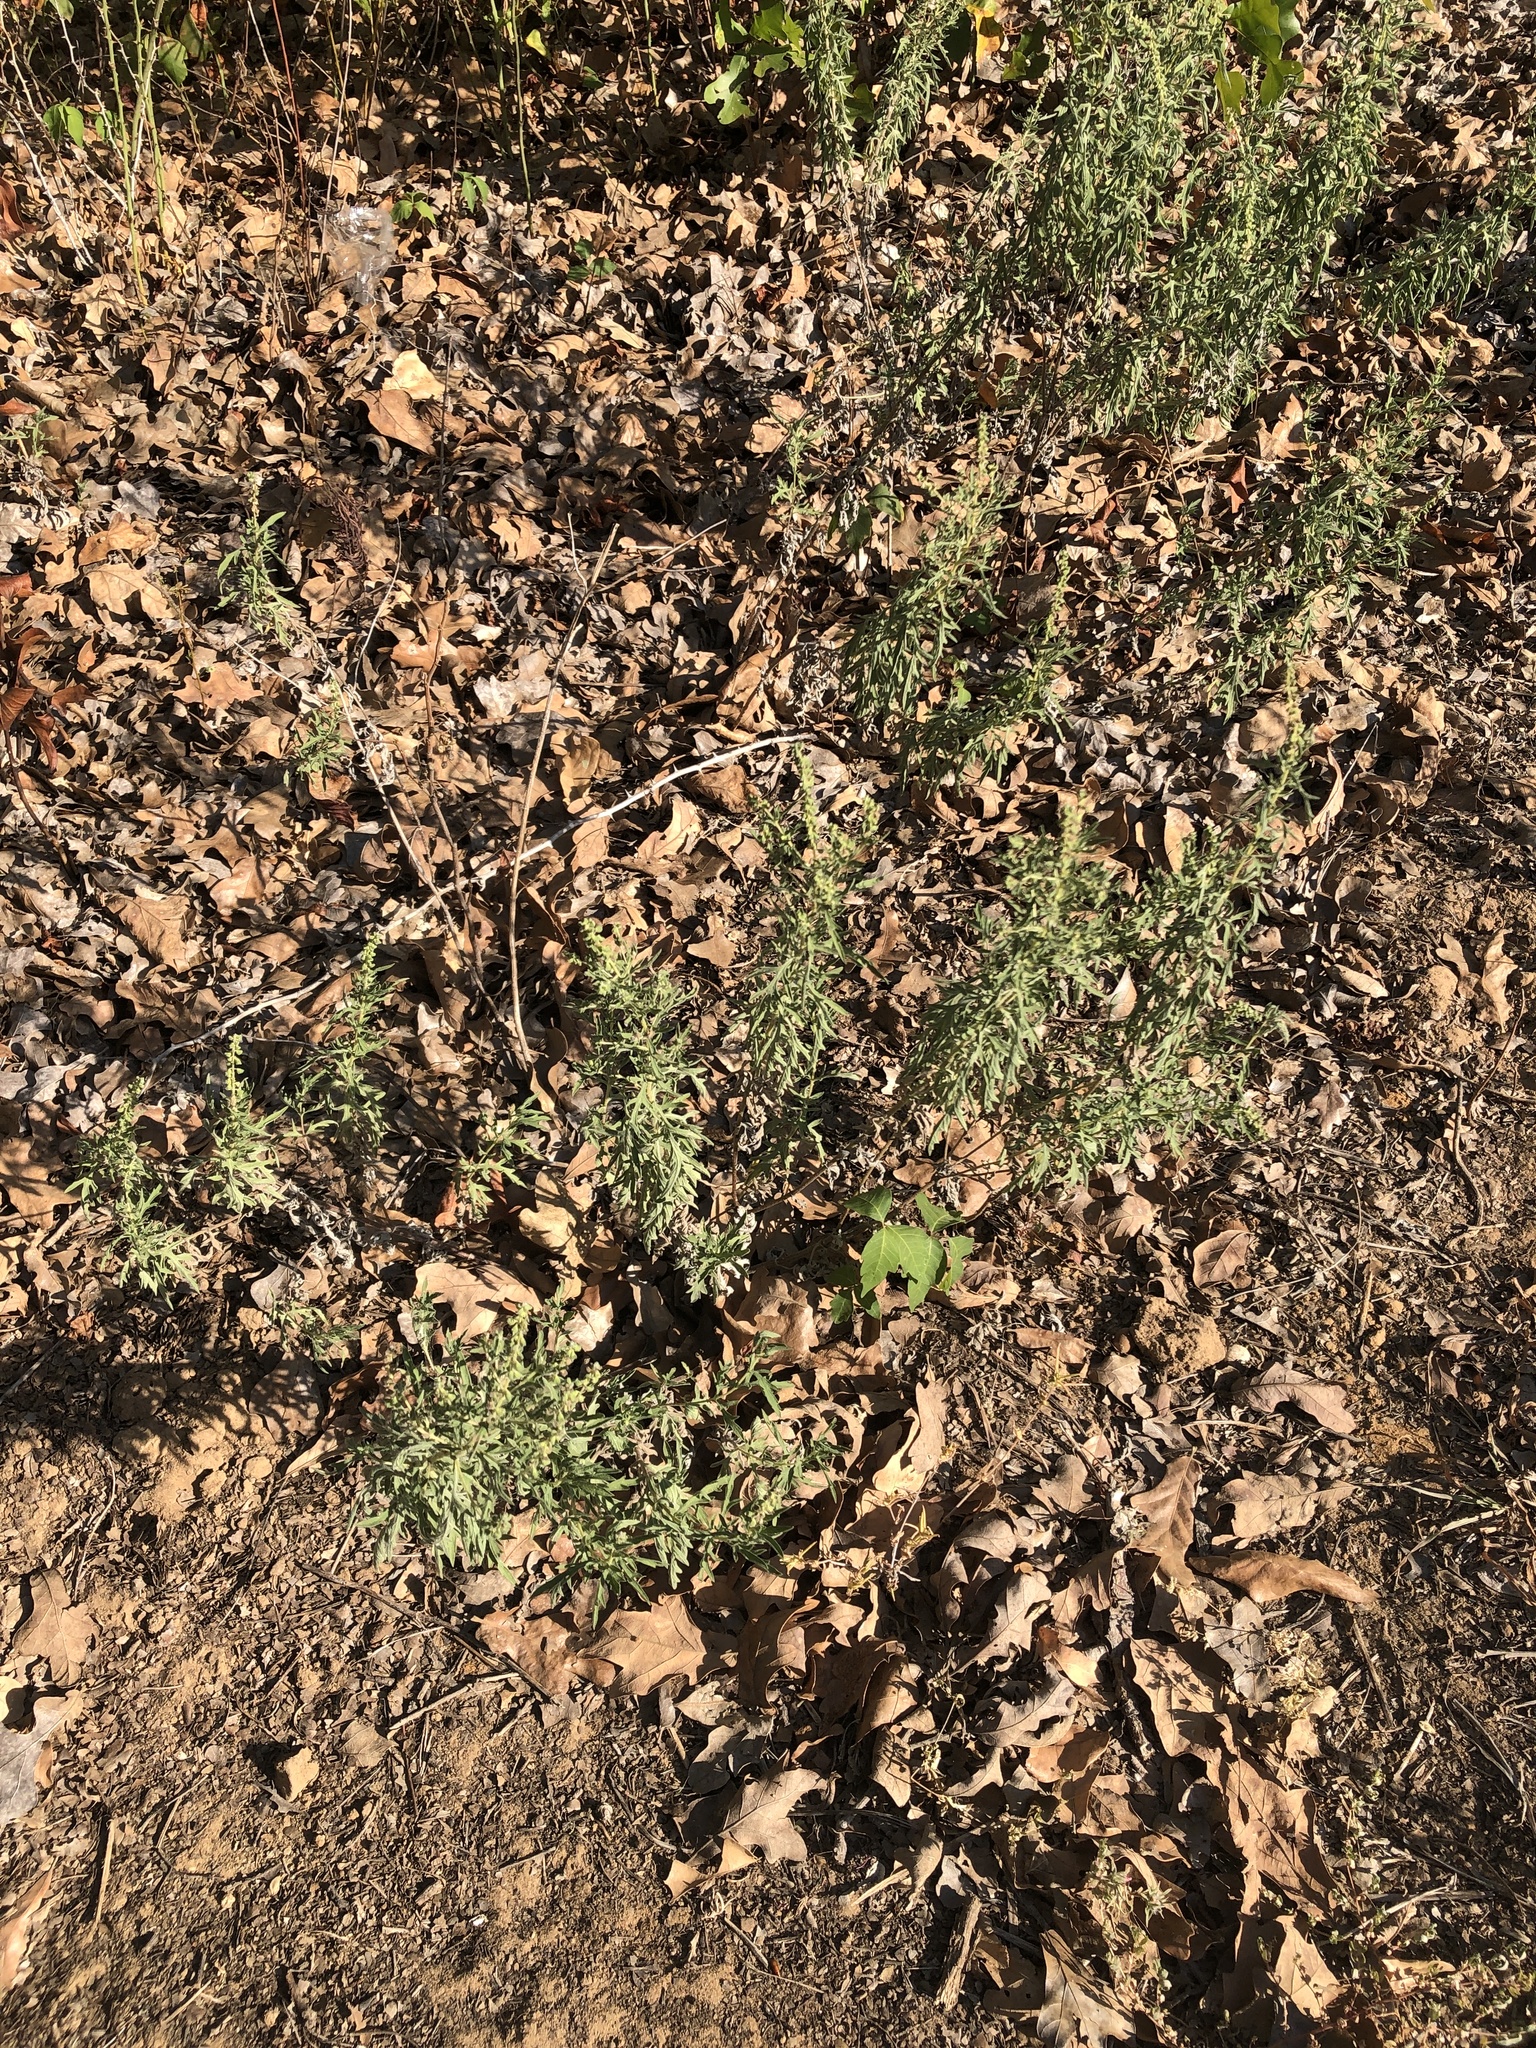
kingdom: Plantae
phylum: Tracheophyta
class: Magnoliopsida
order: Asterales
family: Asteraceae
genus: Ambrosia
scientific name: Ambrosia psilostachya
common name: Perennial ragweed
